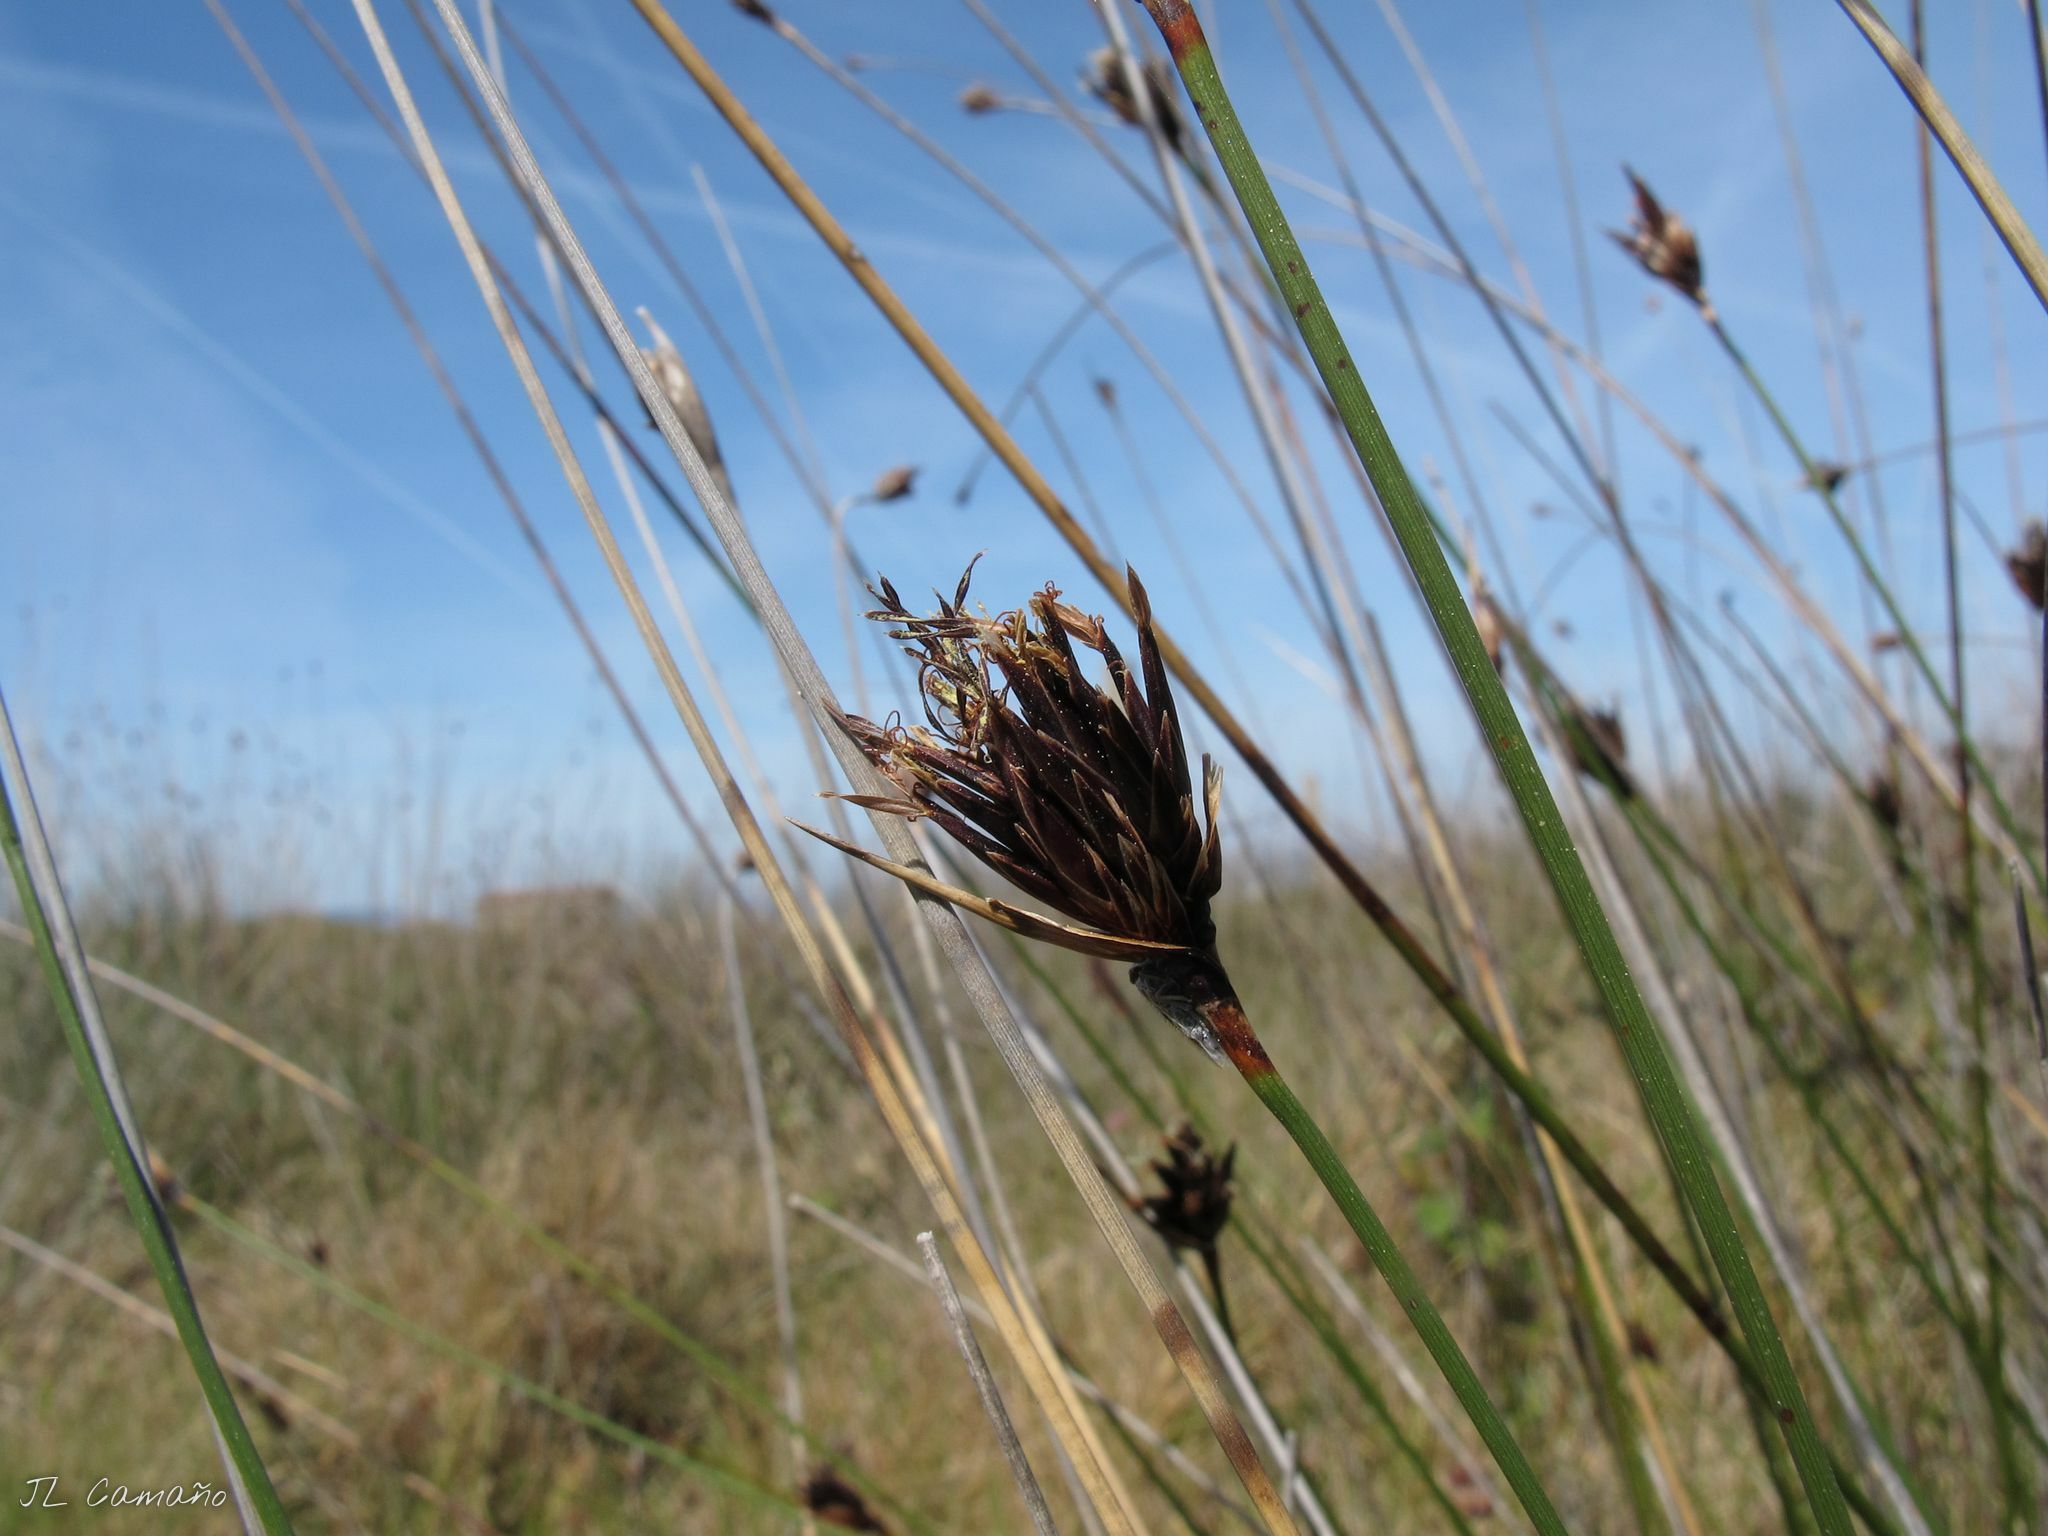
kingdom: Plantae
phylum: Tracheophyta
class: Liliopsida
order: Poales
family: Cyperaceae
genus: Schoenus
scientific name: Schoenus nigricans
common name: Black bog-rush
